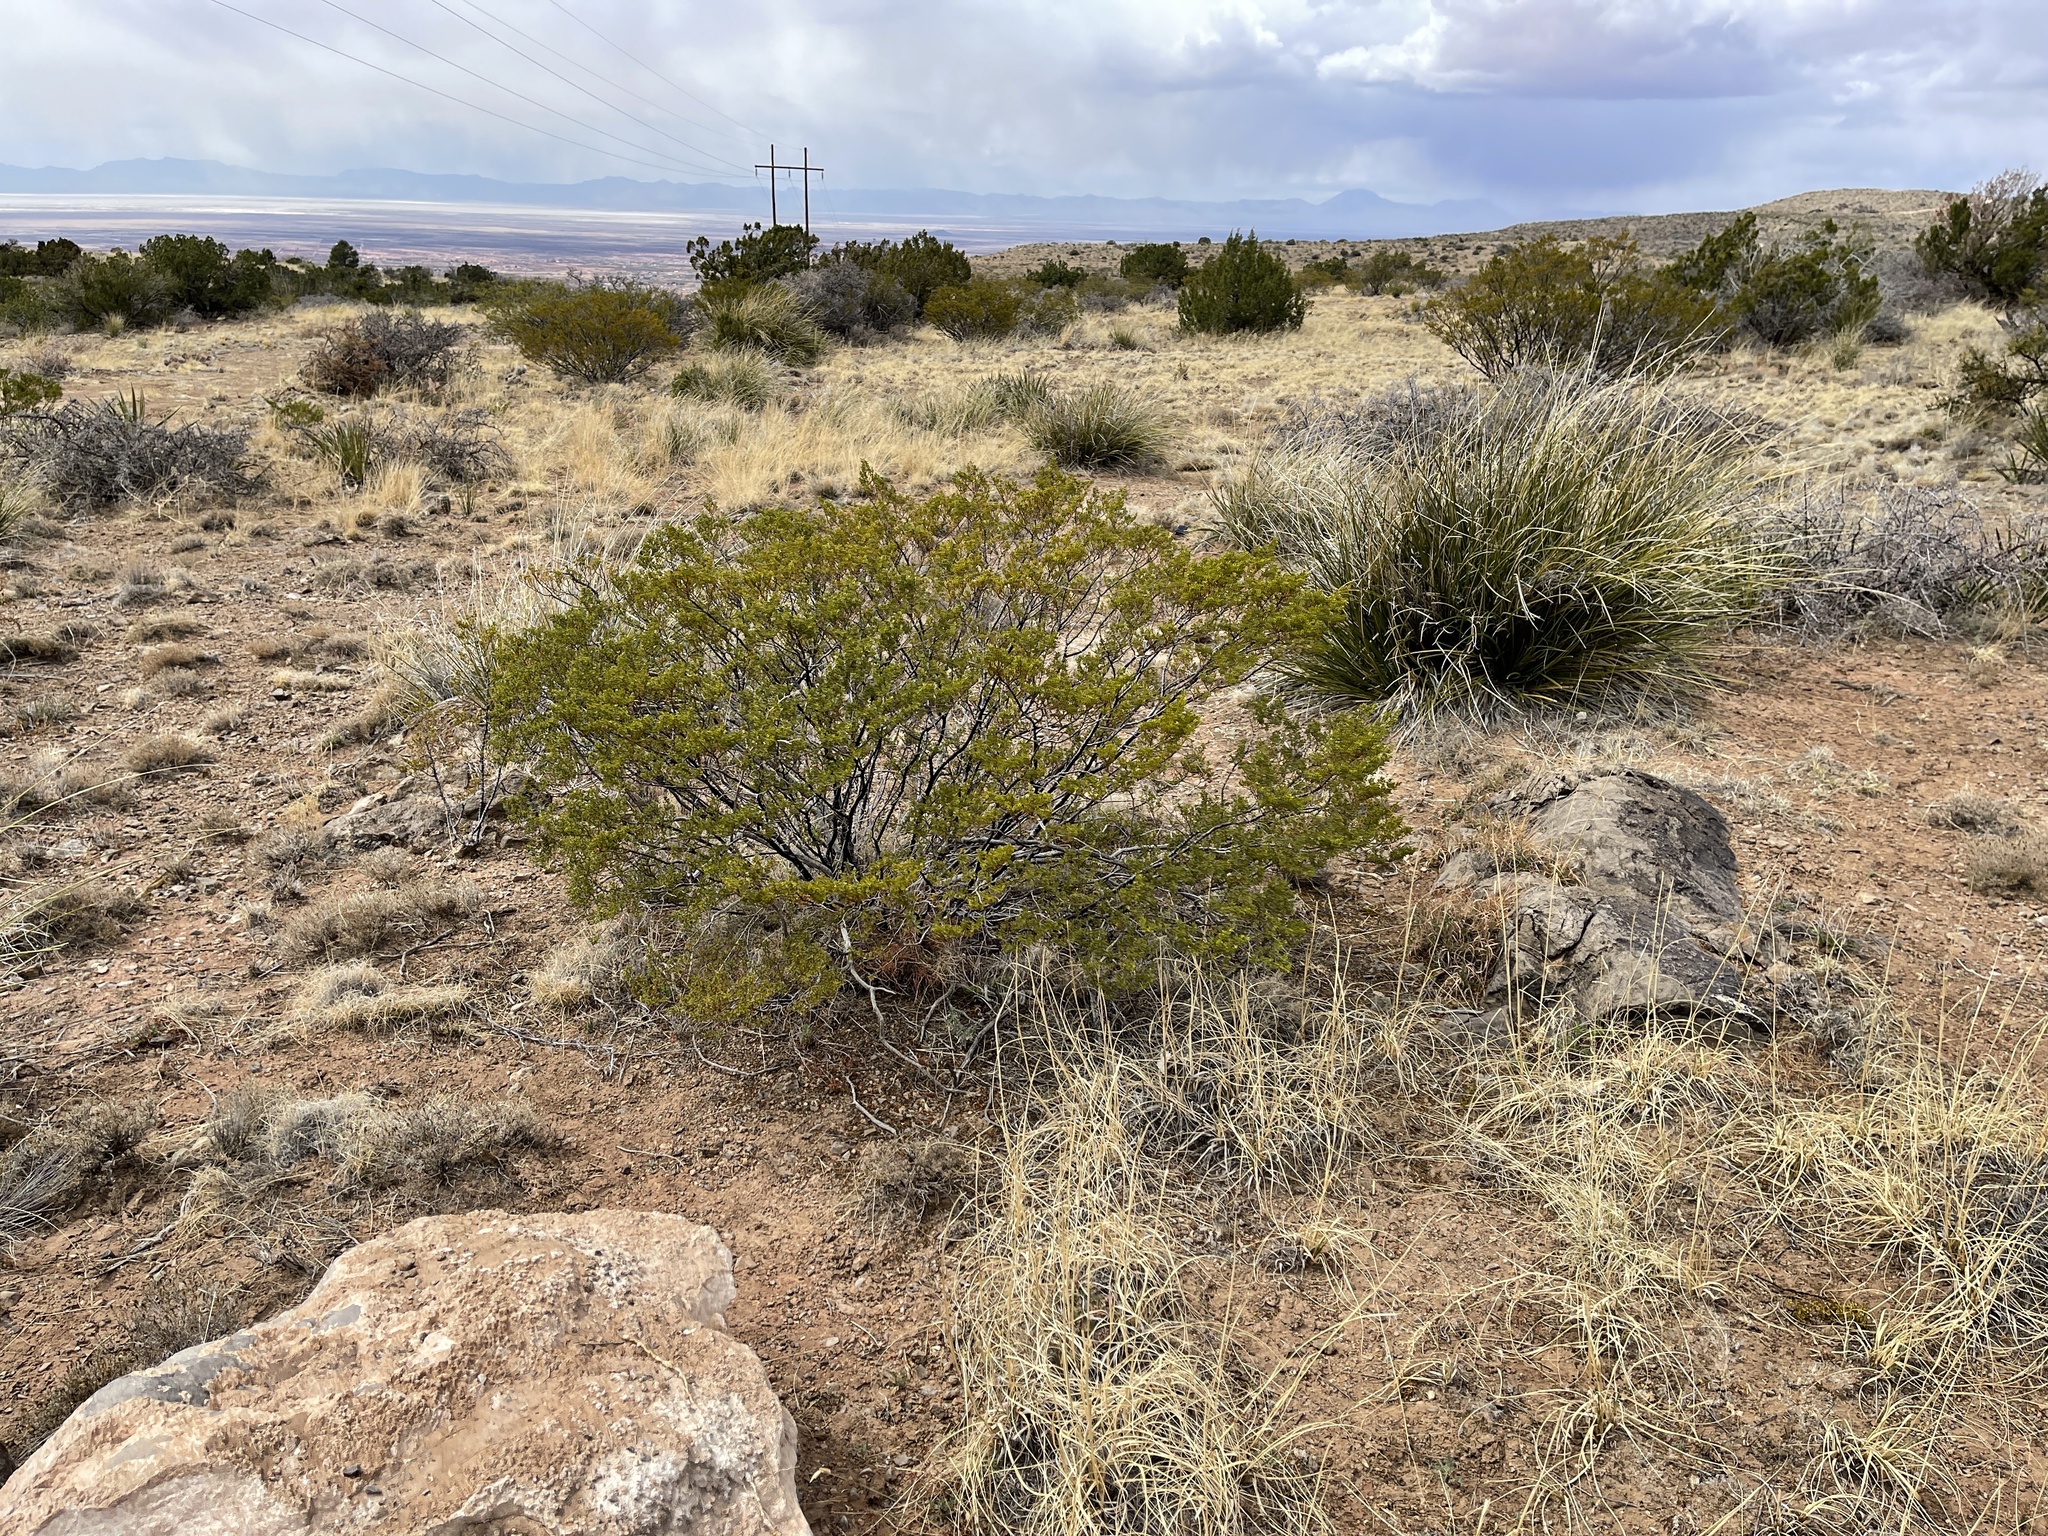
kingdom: Plantae
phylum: Tracheophyta
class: Magnoliopsida
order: Zygophyllales
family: Zygophyllaceae
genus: Larrea
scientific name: Larrea tridentata
